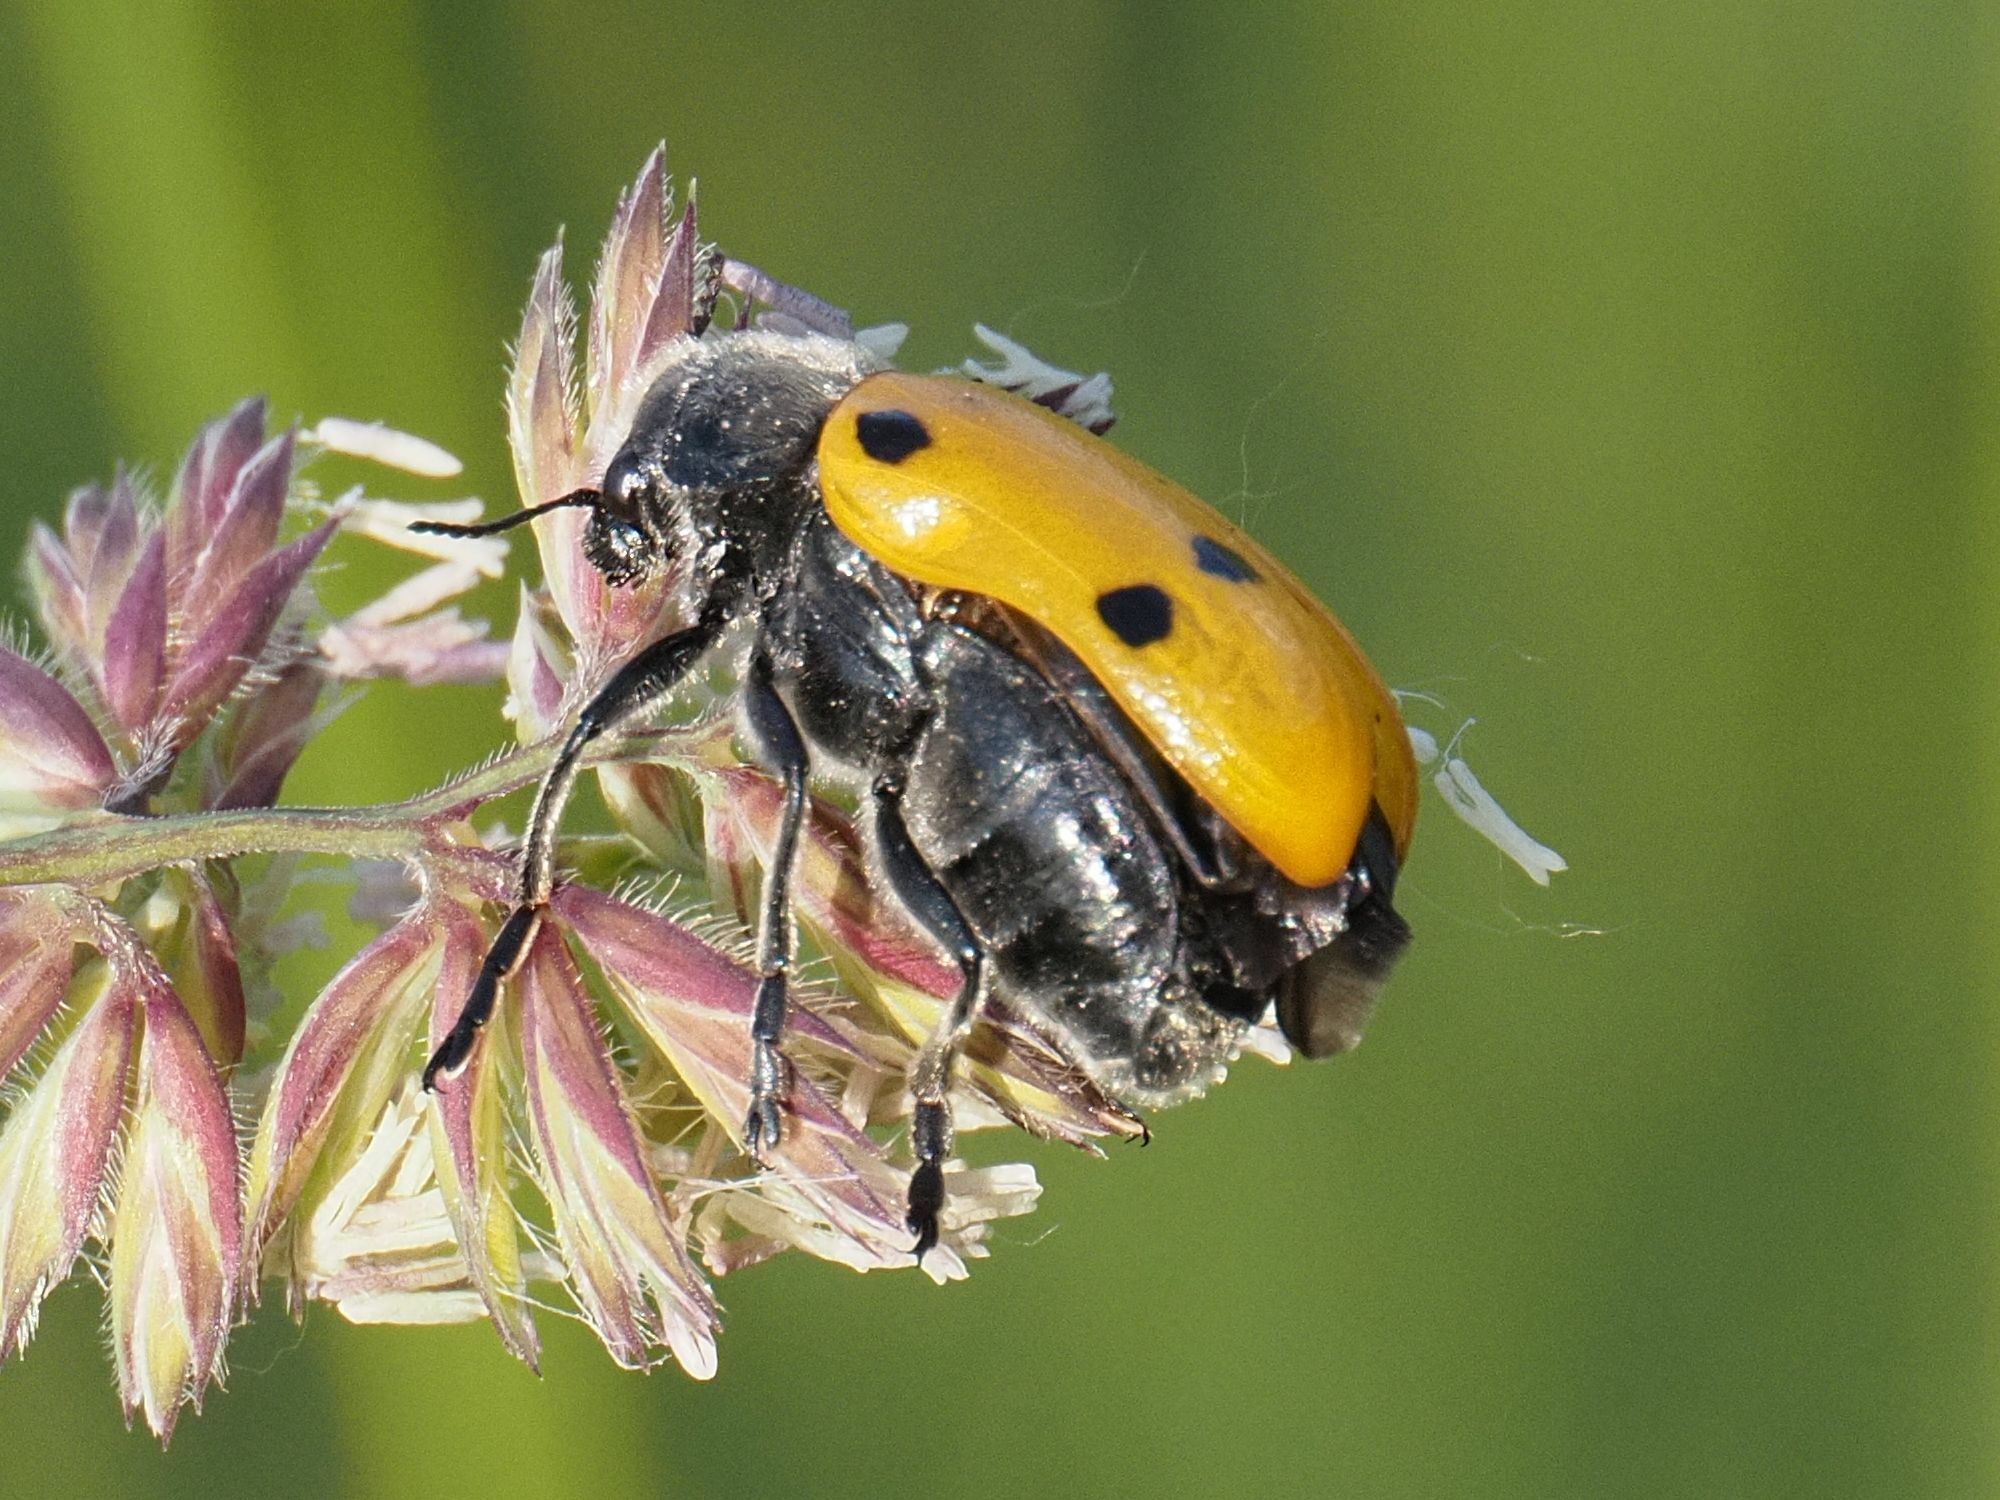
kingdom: Animalia
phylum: Arthropoda
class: Insecta
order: Coleoptera
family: Chrysomelidae
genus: Lachnaia
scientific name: Lachnaia sexpunctata
